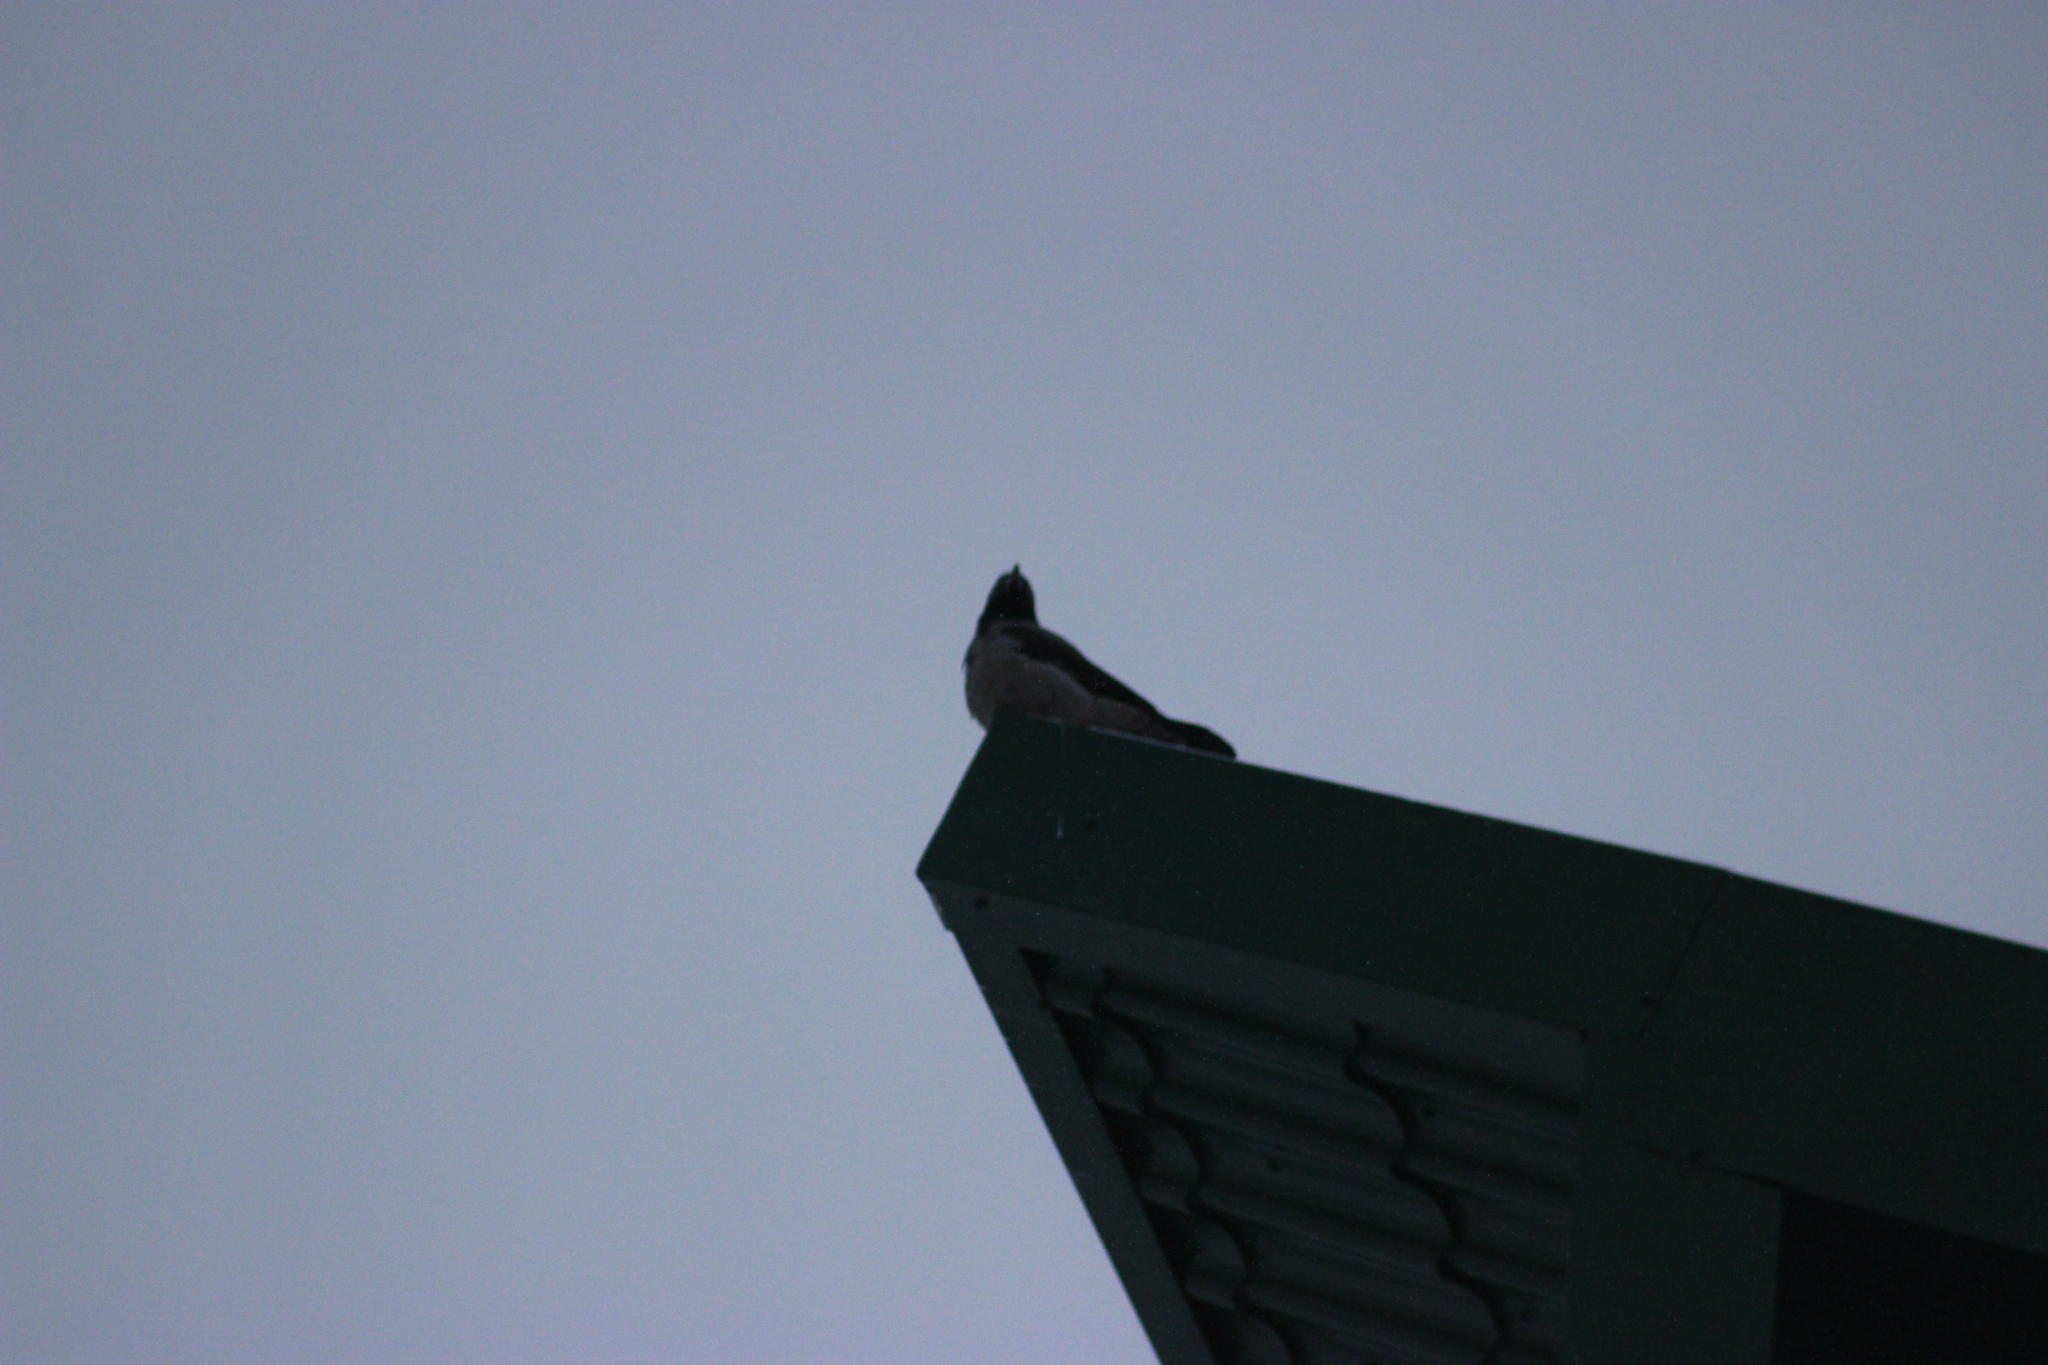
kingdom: Animalia
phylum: Chordata
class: Aves
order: Passeriformes
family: Corvidae
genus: Corvus
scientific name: Corvus cornix
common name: Hooded crow
